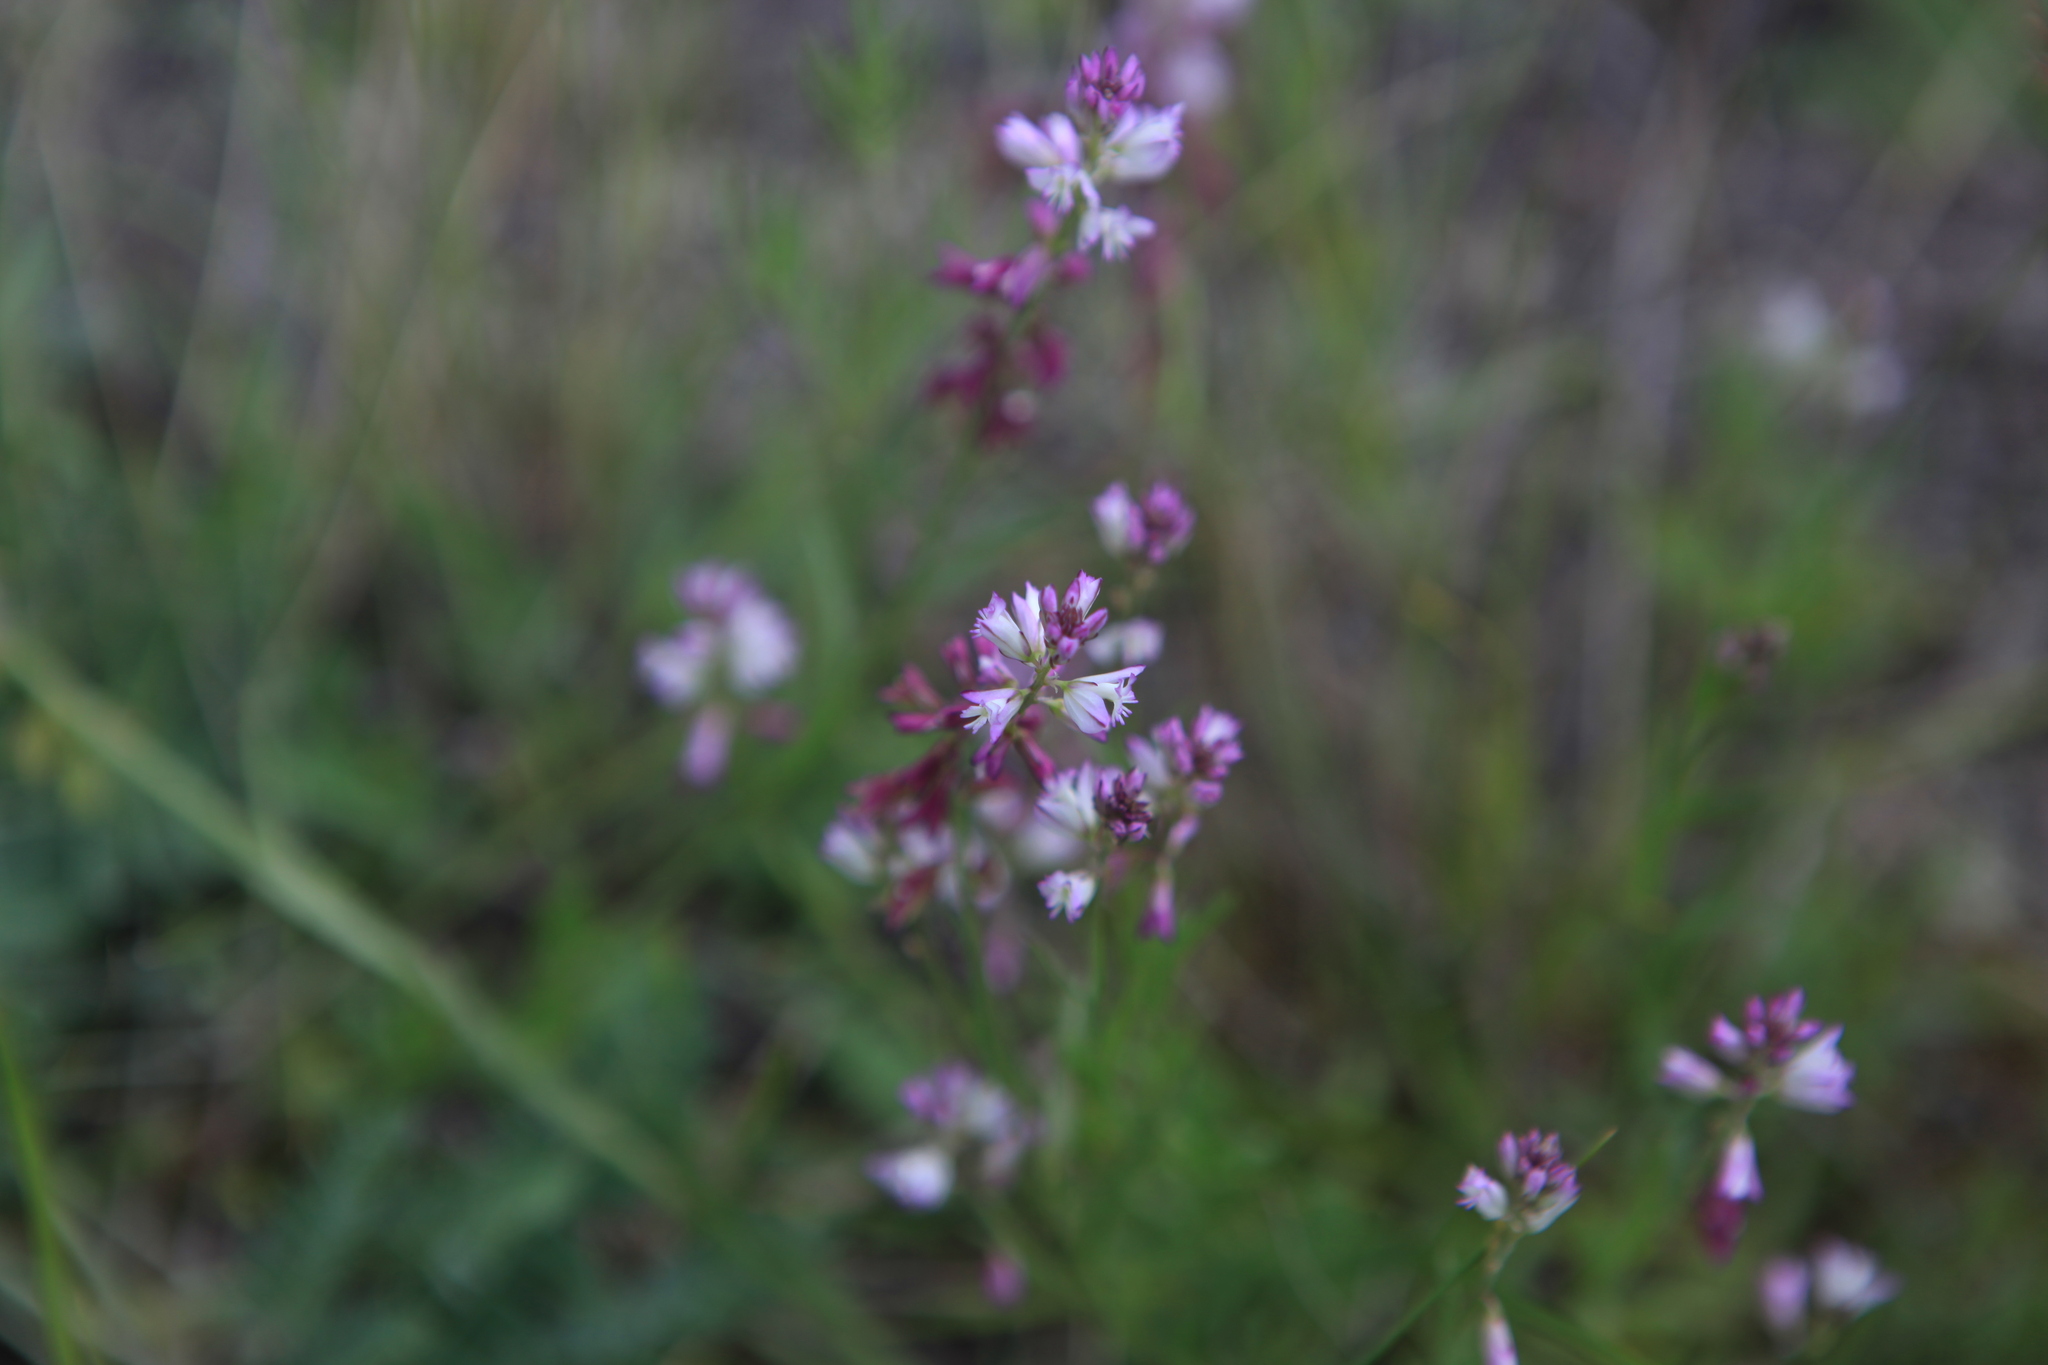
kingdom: Plantae
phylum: Tracheophyta
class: Magnoliopsida
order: Fabales
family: Polygalaceae
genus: Polygala
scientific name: Polygala comosa
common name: Tufted milkwort
